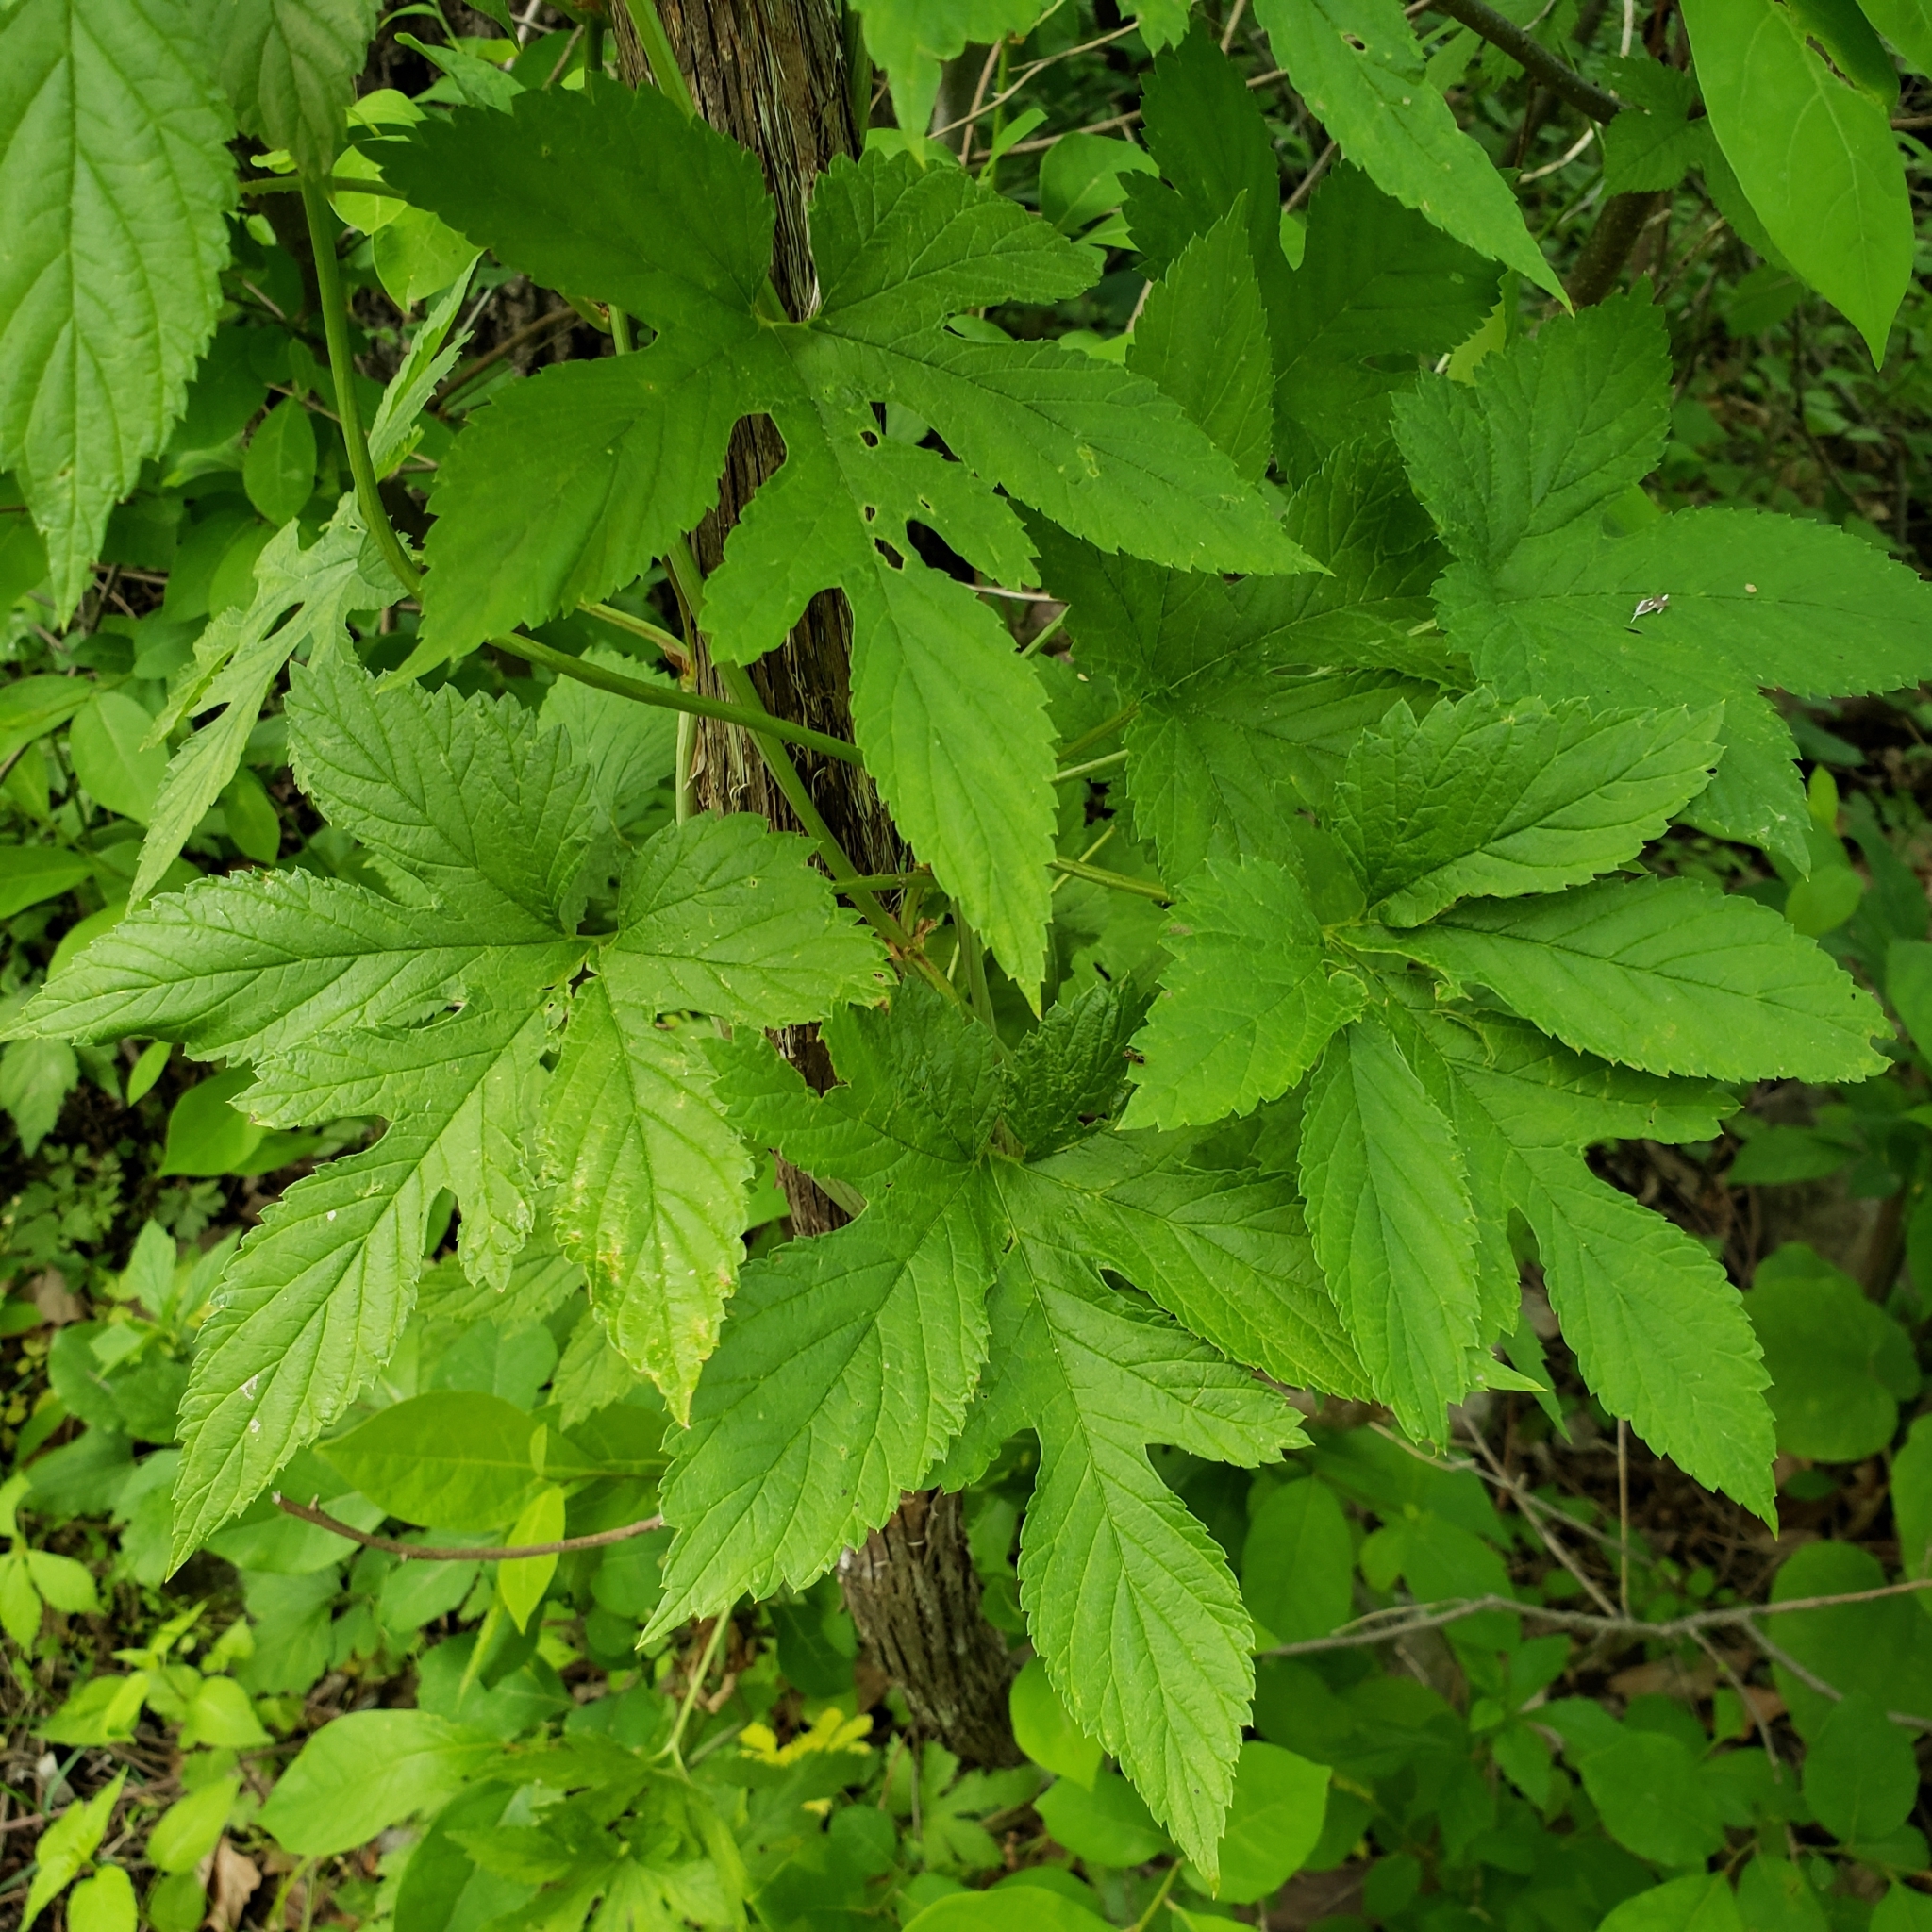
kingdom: Plantae
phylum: Tracheophyta
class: Magnoliopsida
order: Rosales
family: Cannabaceae
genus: Humulus
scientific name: Humulus lupulus
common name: Hop
